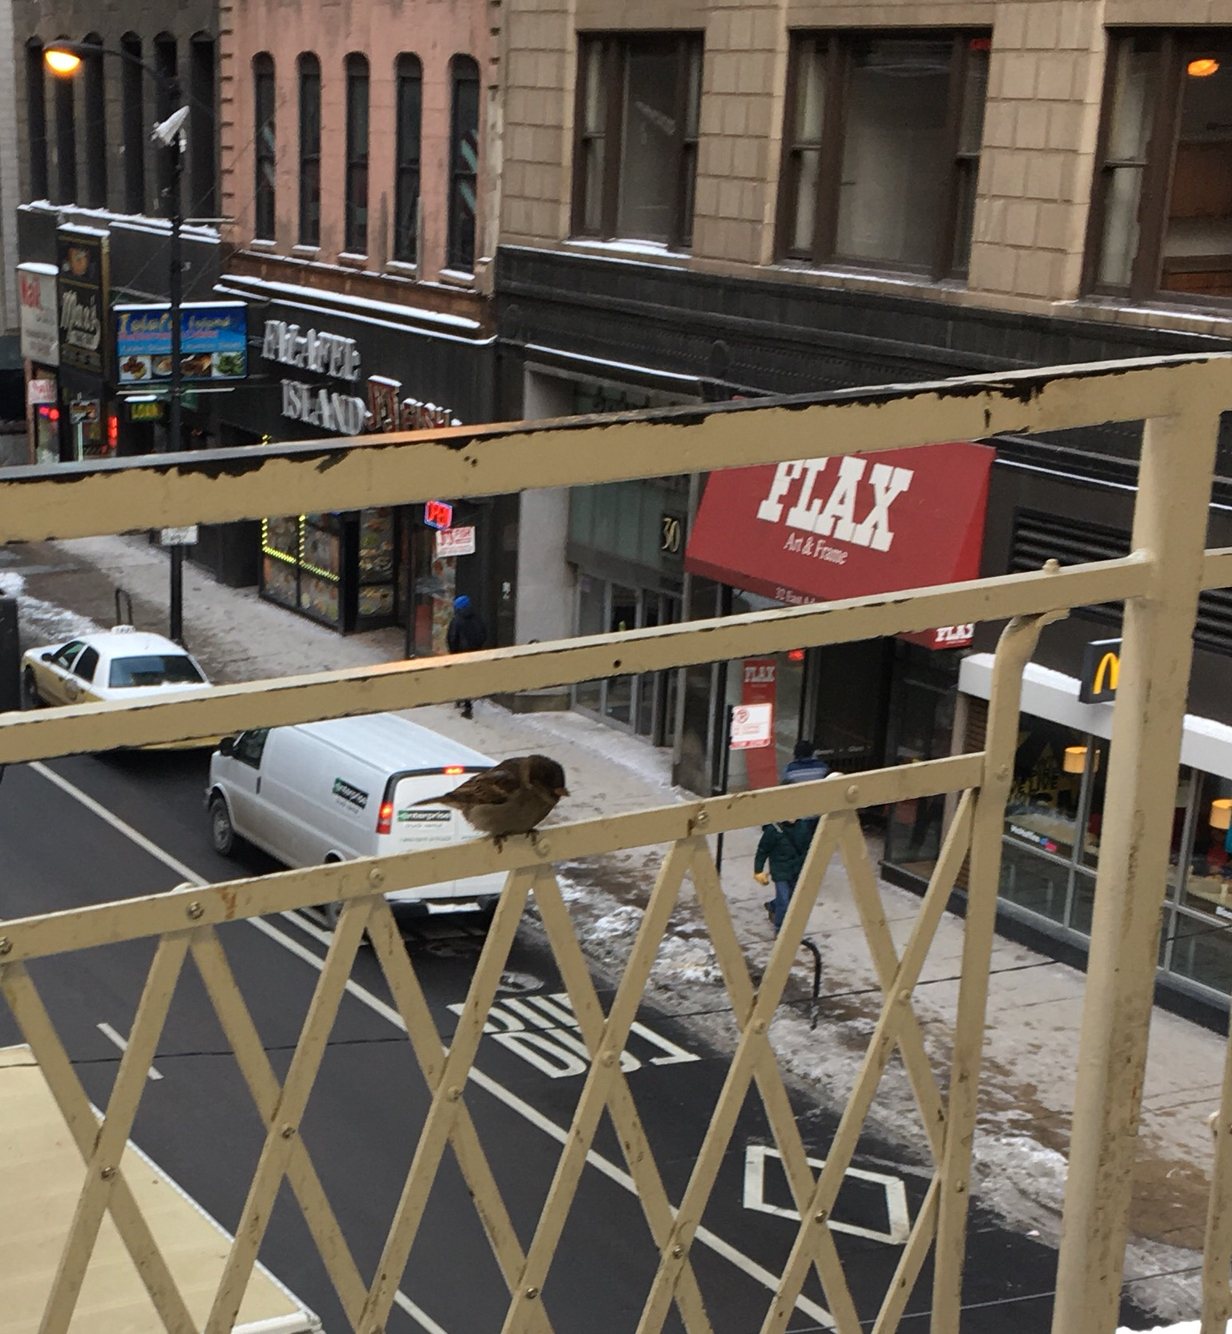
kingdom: Animalia
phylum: Chordata
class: Aves
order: Passeriformes
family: Passeridae
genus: Passer
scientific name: Passer domesticus
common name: House sparrow
